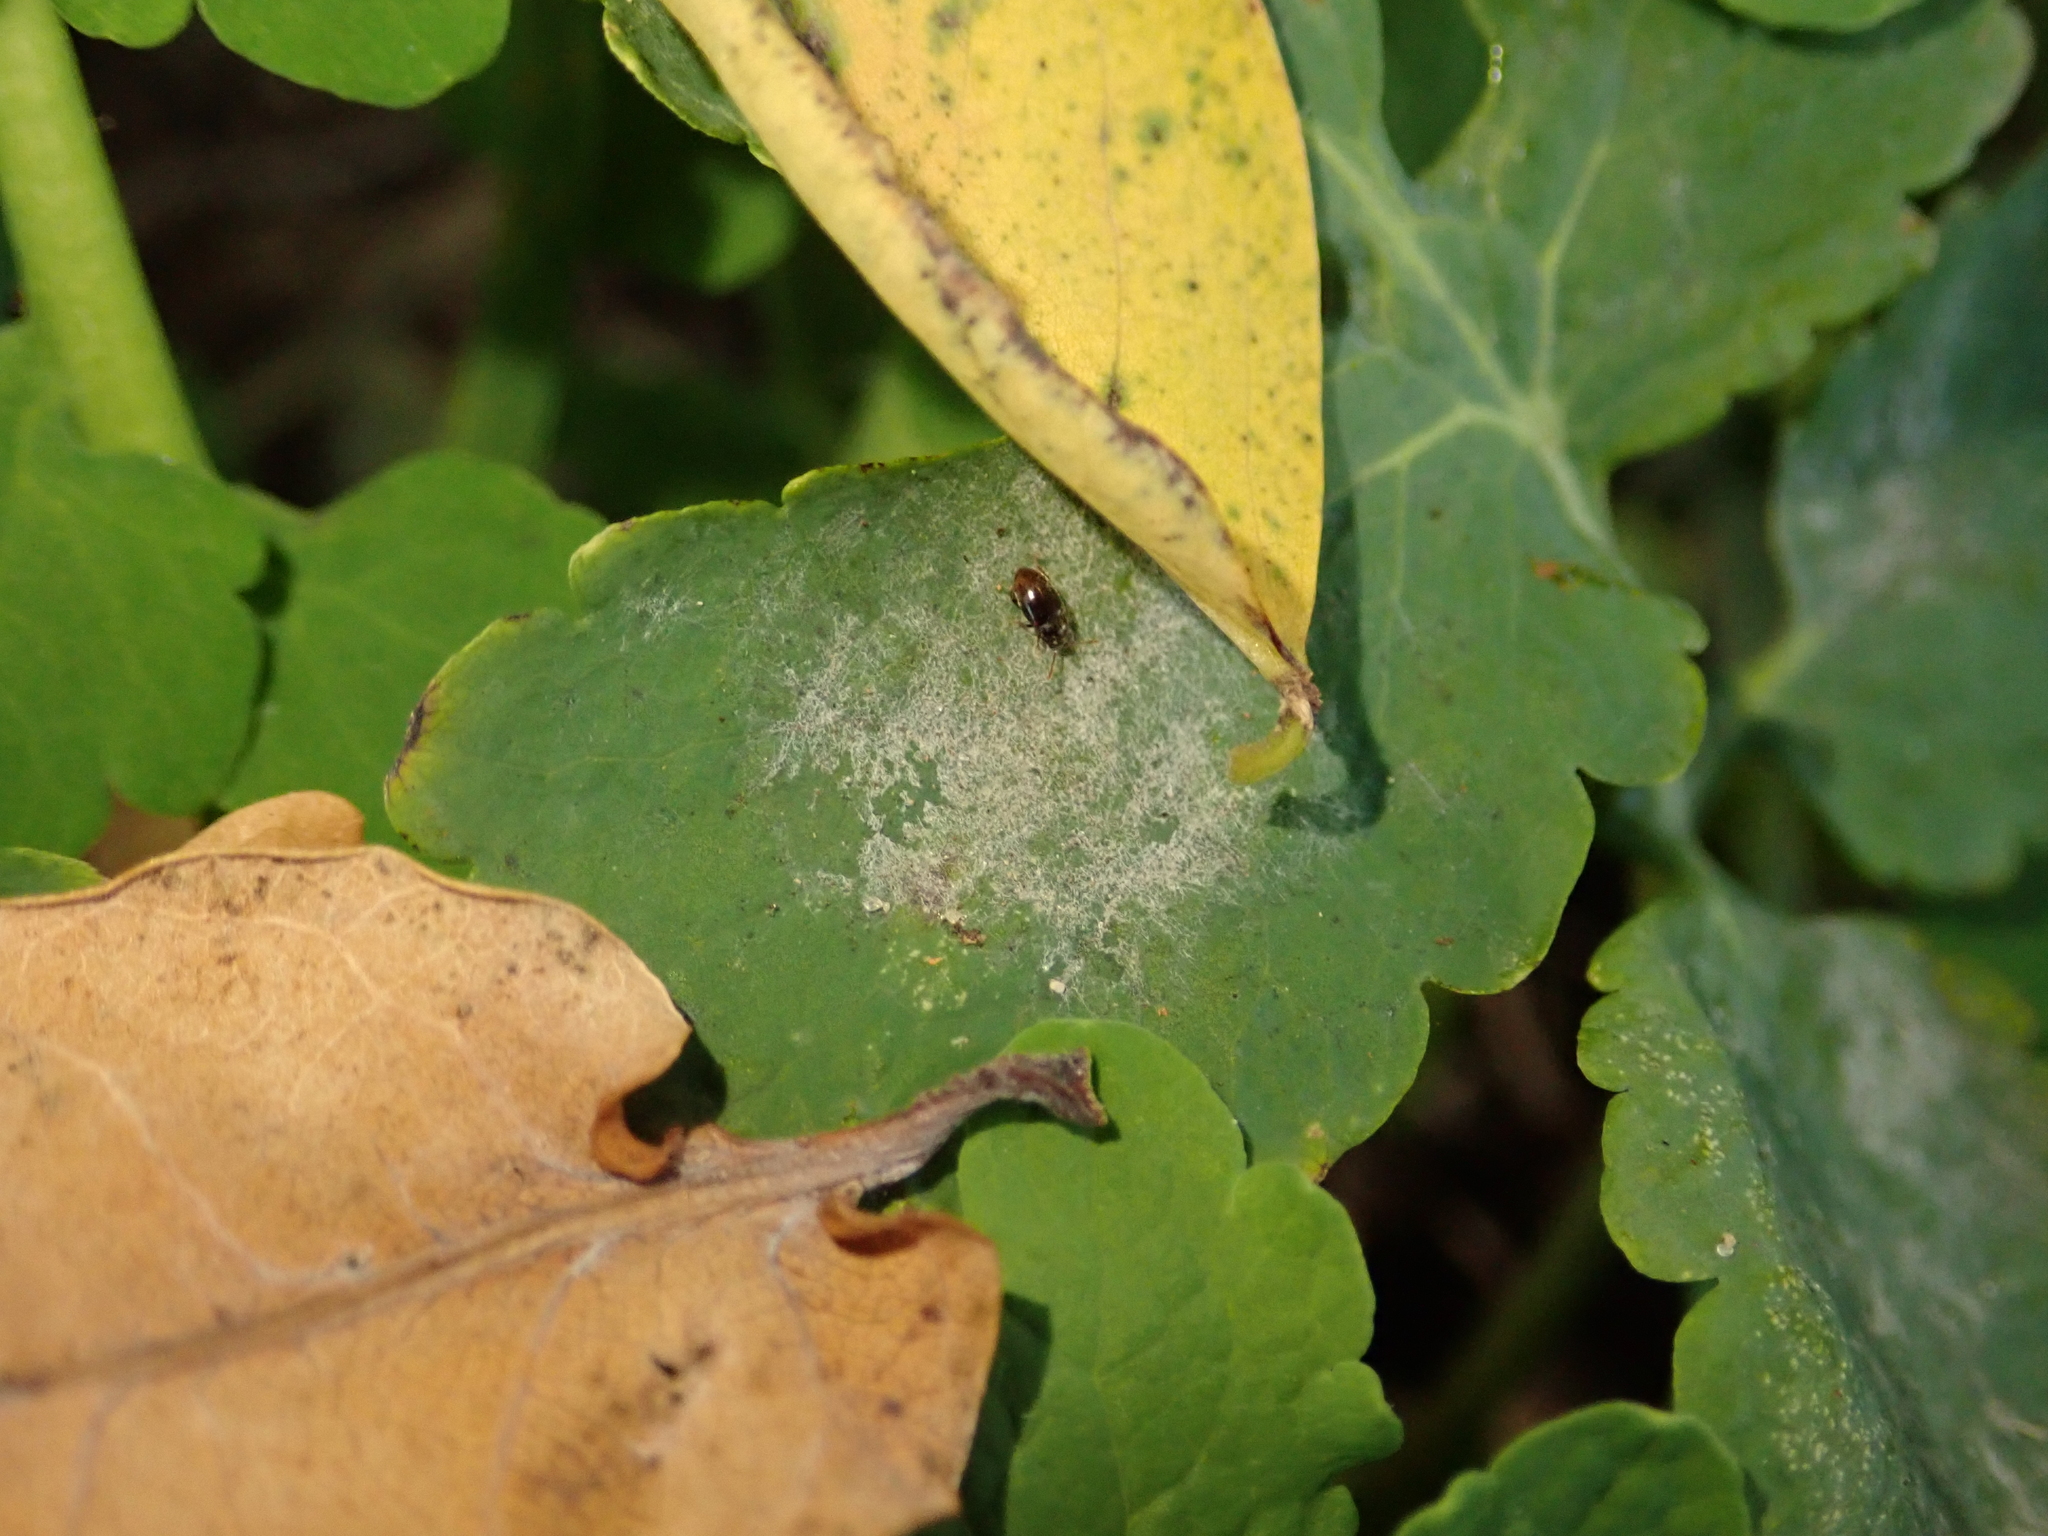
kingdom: Fungi
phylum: Ascomycota
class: Leotiomycetes
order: Helotiales
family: Erysiphaceae
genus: Erysiphe
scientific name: Erysiphe macleayae
